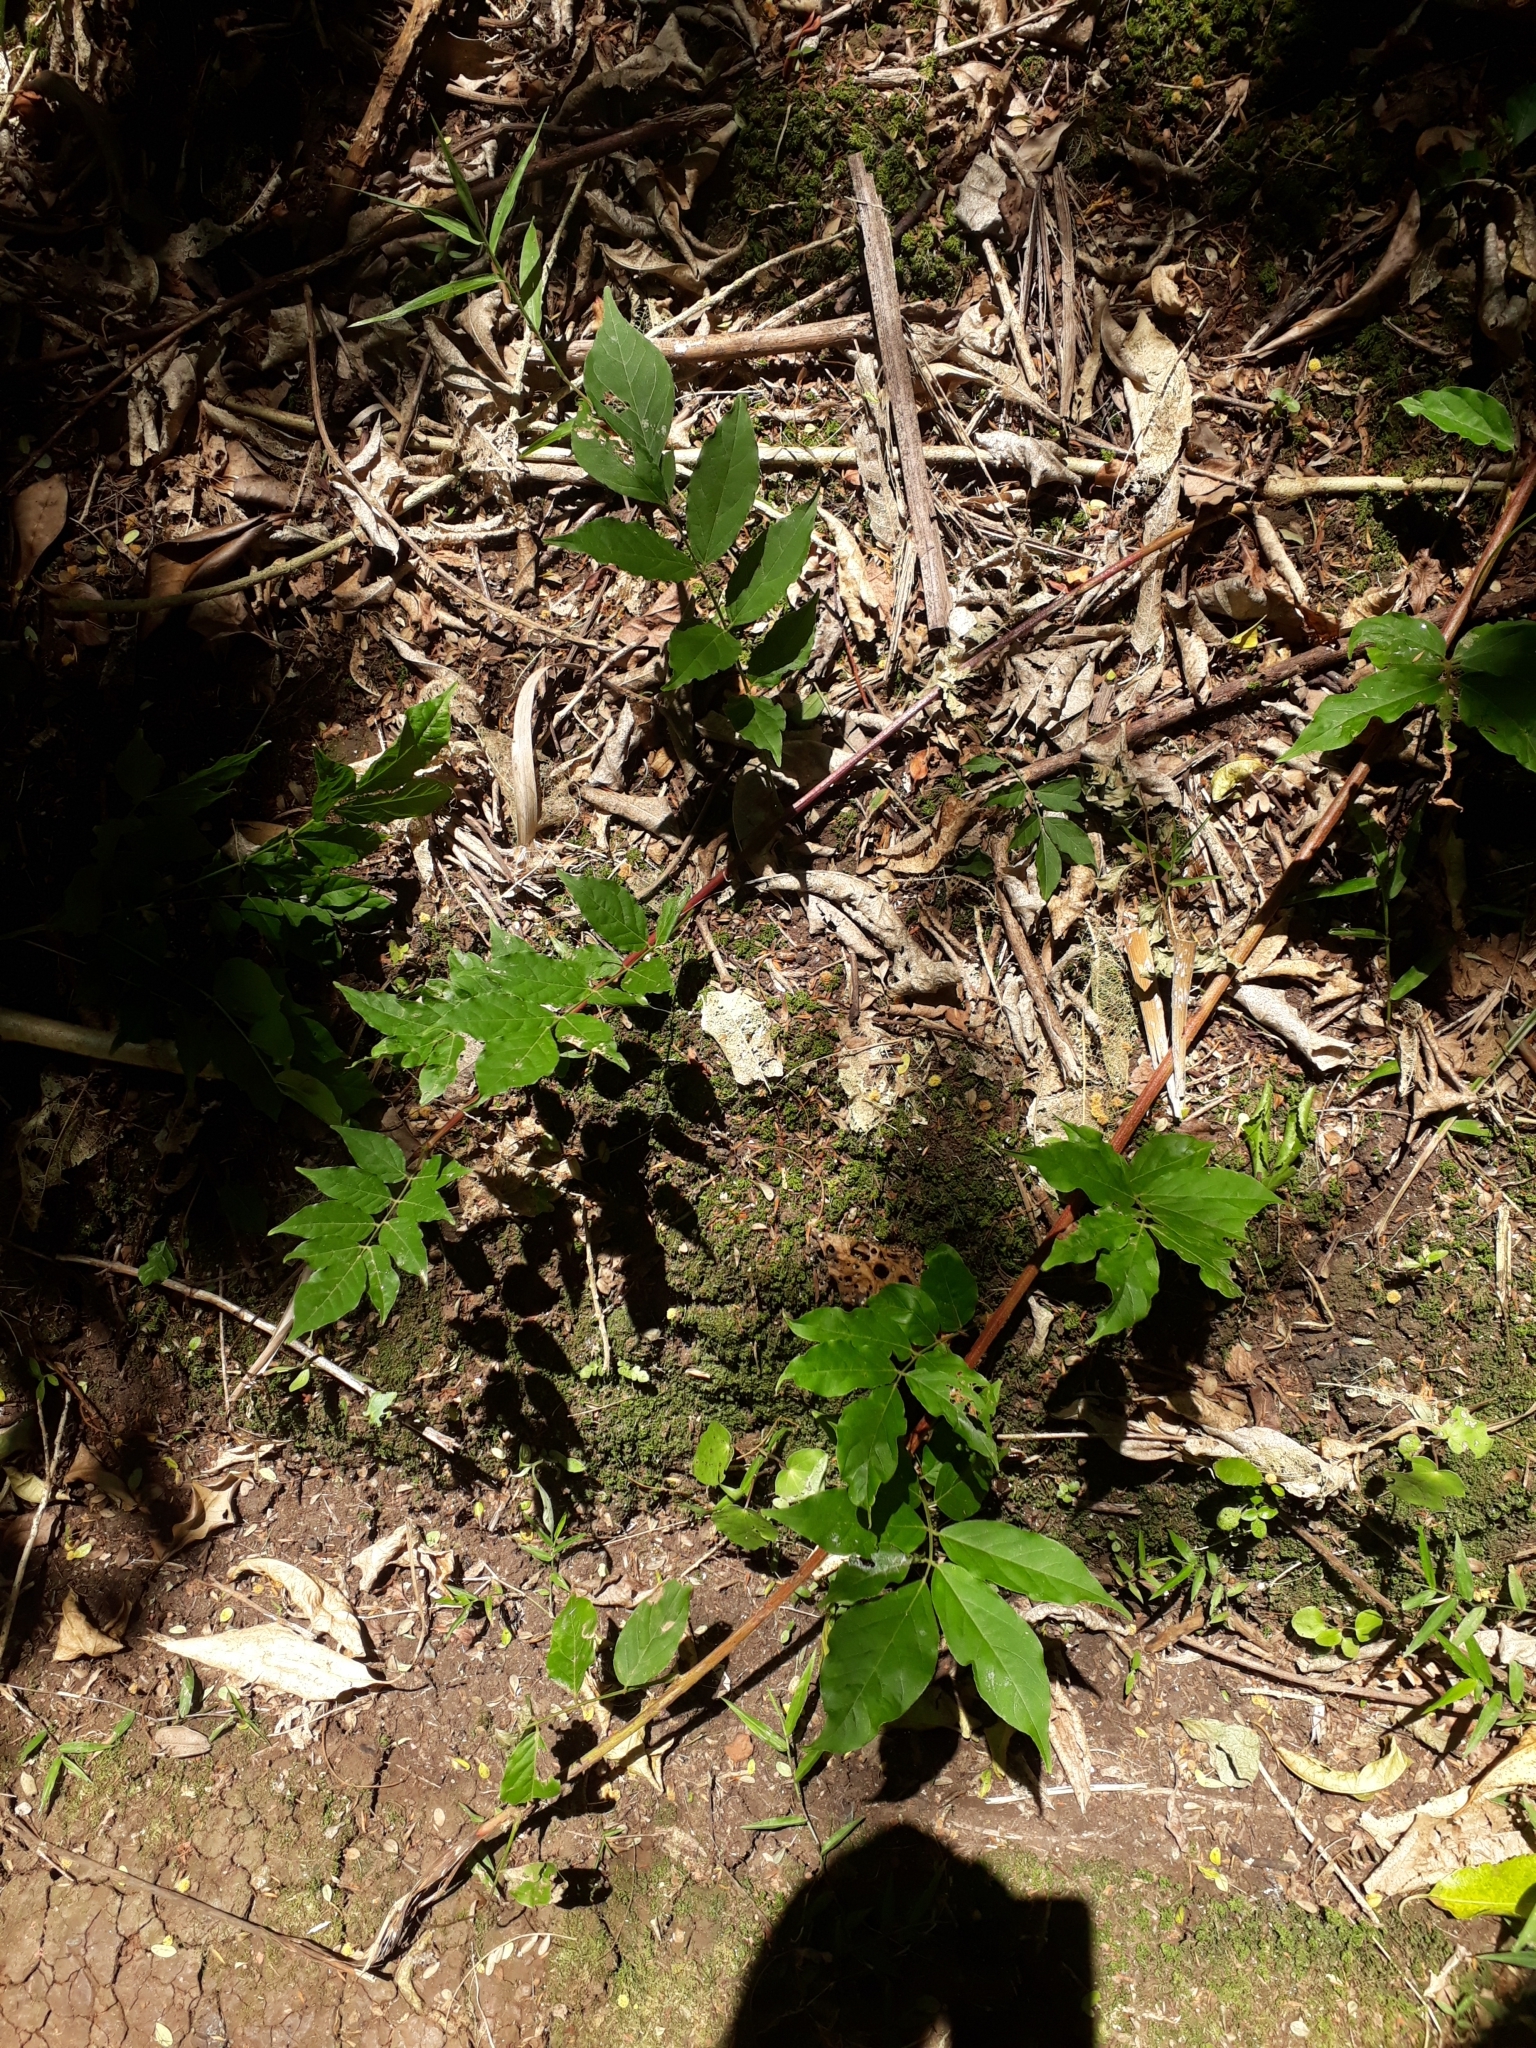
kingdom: Plantae
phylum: Tracheophyta
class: Magnoliopsida
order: Fabales
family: Fabaceae
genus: Wisteria
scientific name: Wisteria sinensis
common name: Chinese wisteria
